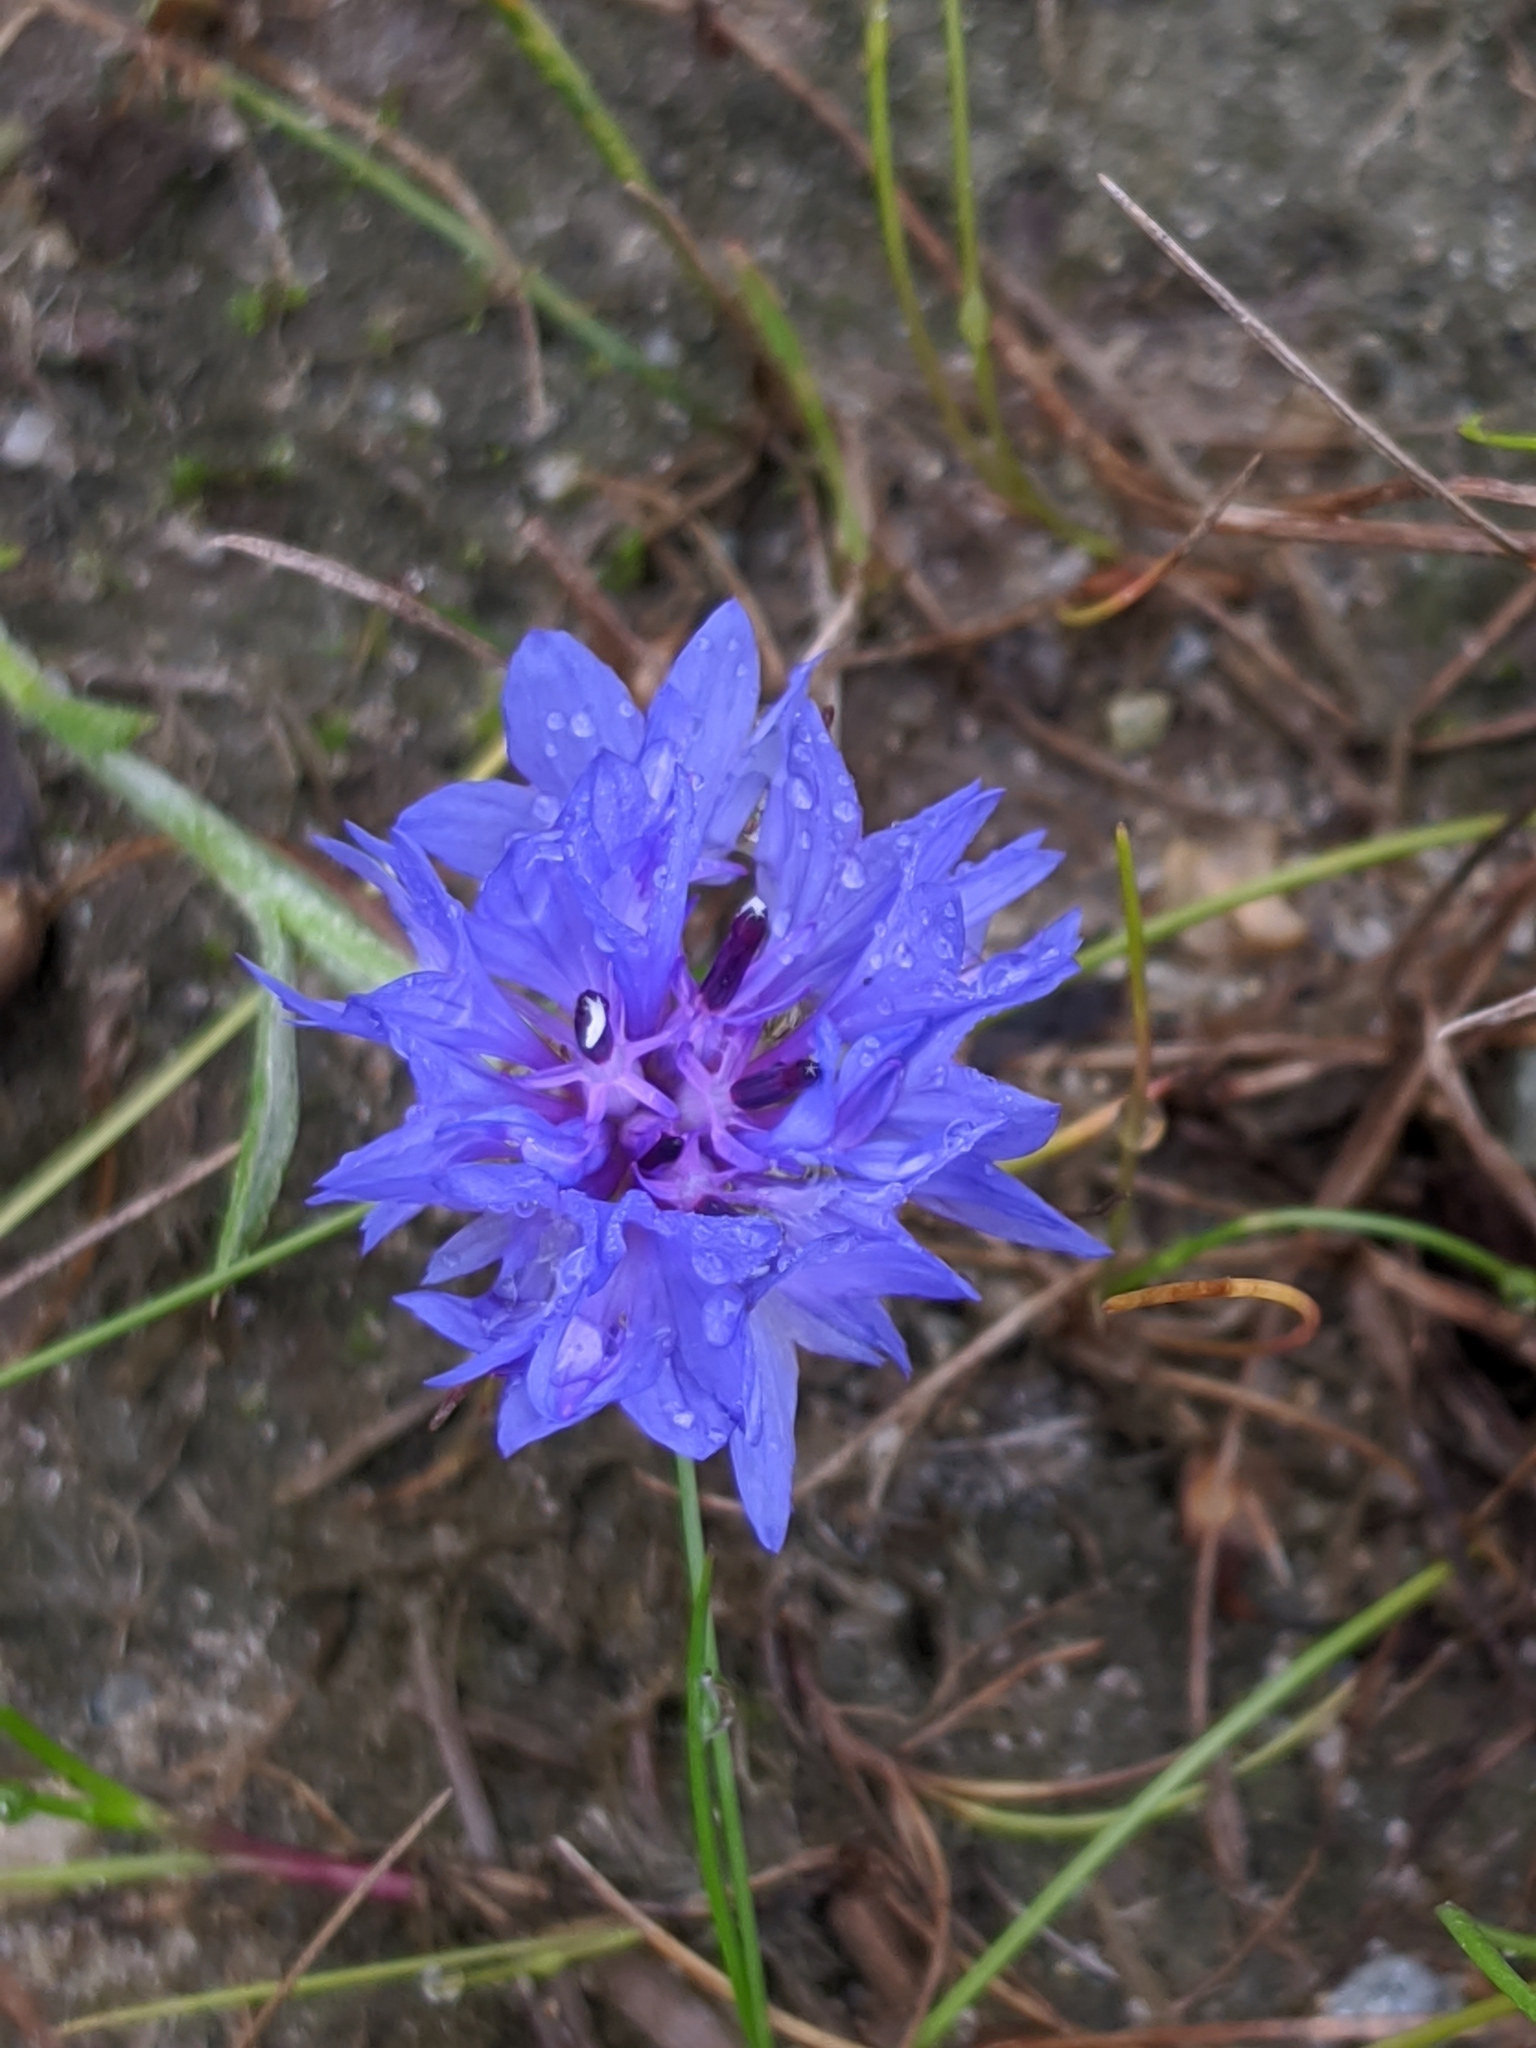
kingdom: Plantae
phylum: Tracheophyta
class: Magnoliopsida
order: Asterales
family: Asteraceae
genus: Centaurea
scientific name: Centaurea cyanus
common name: Cornflower
